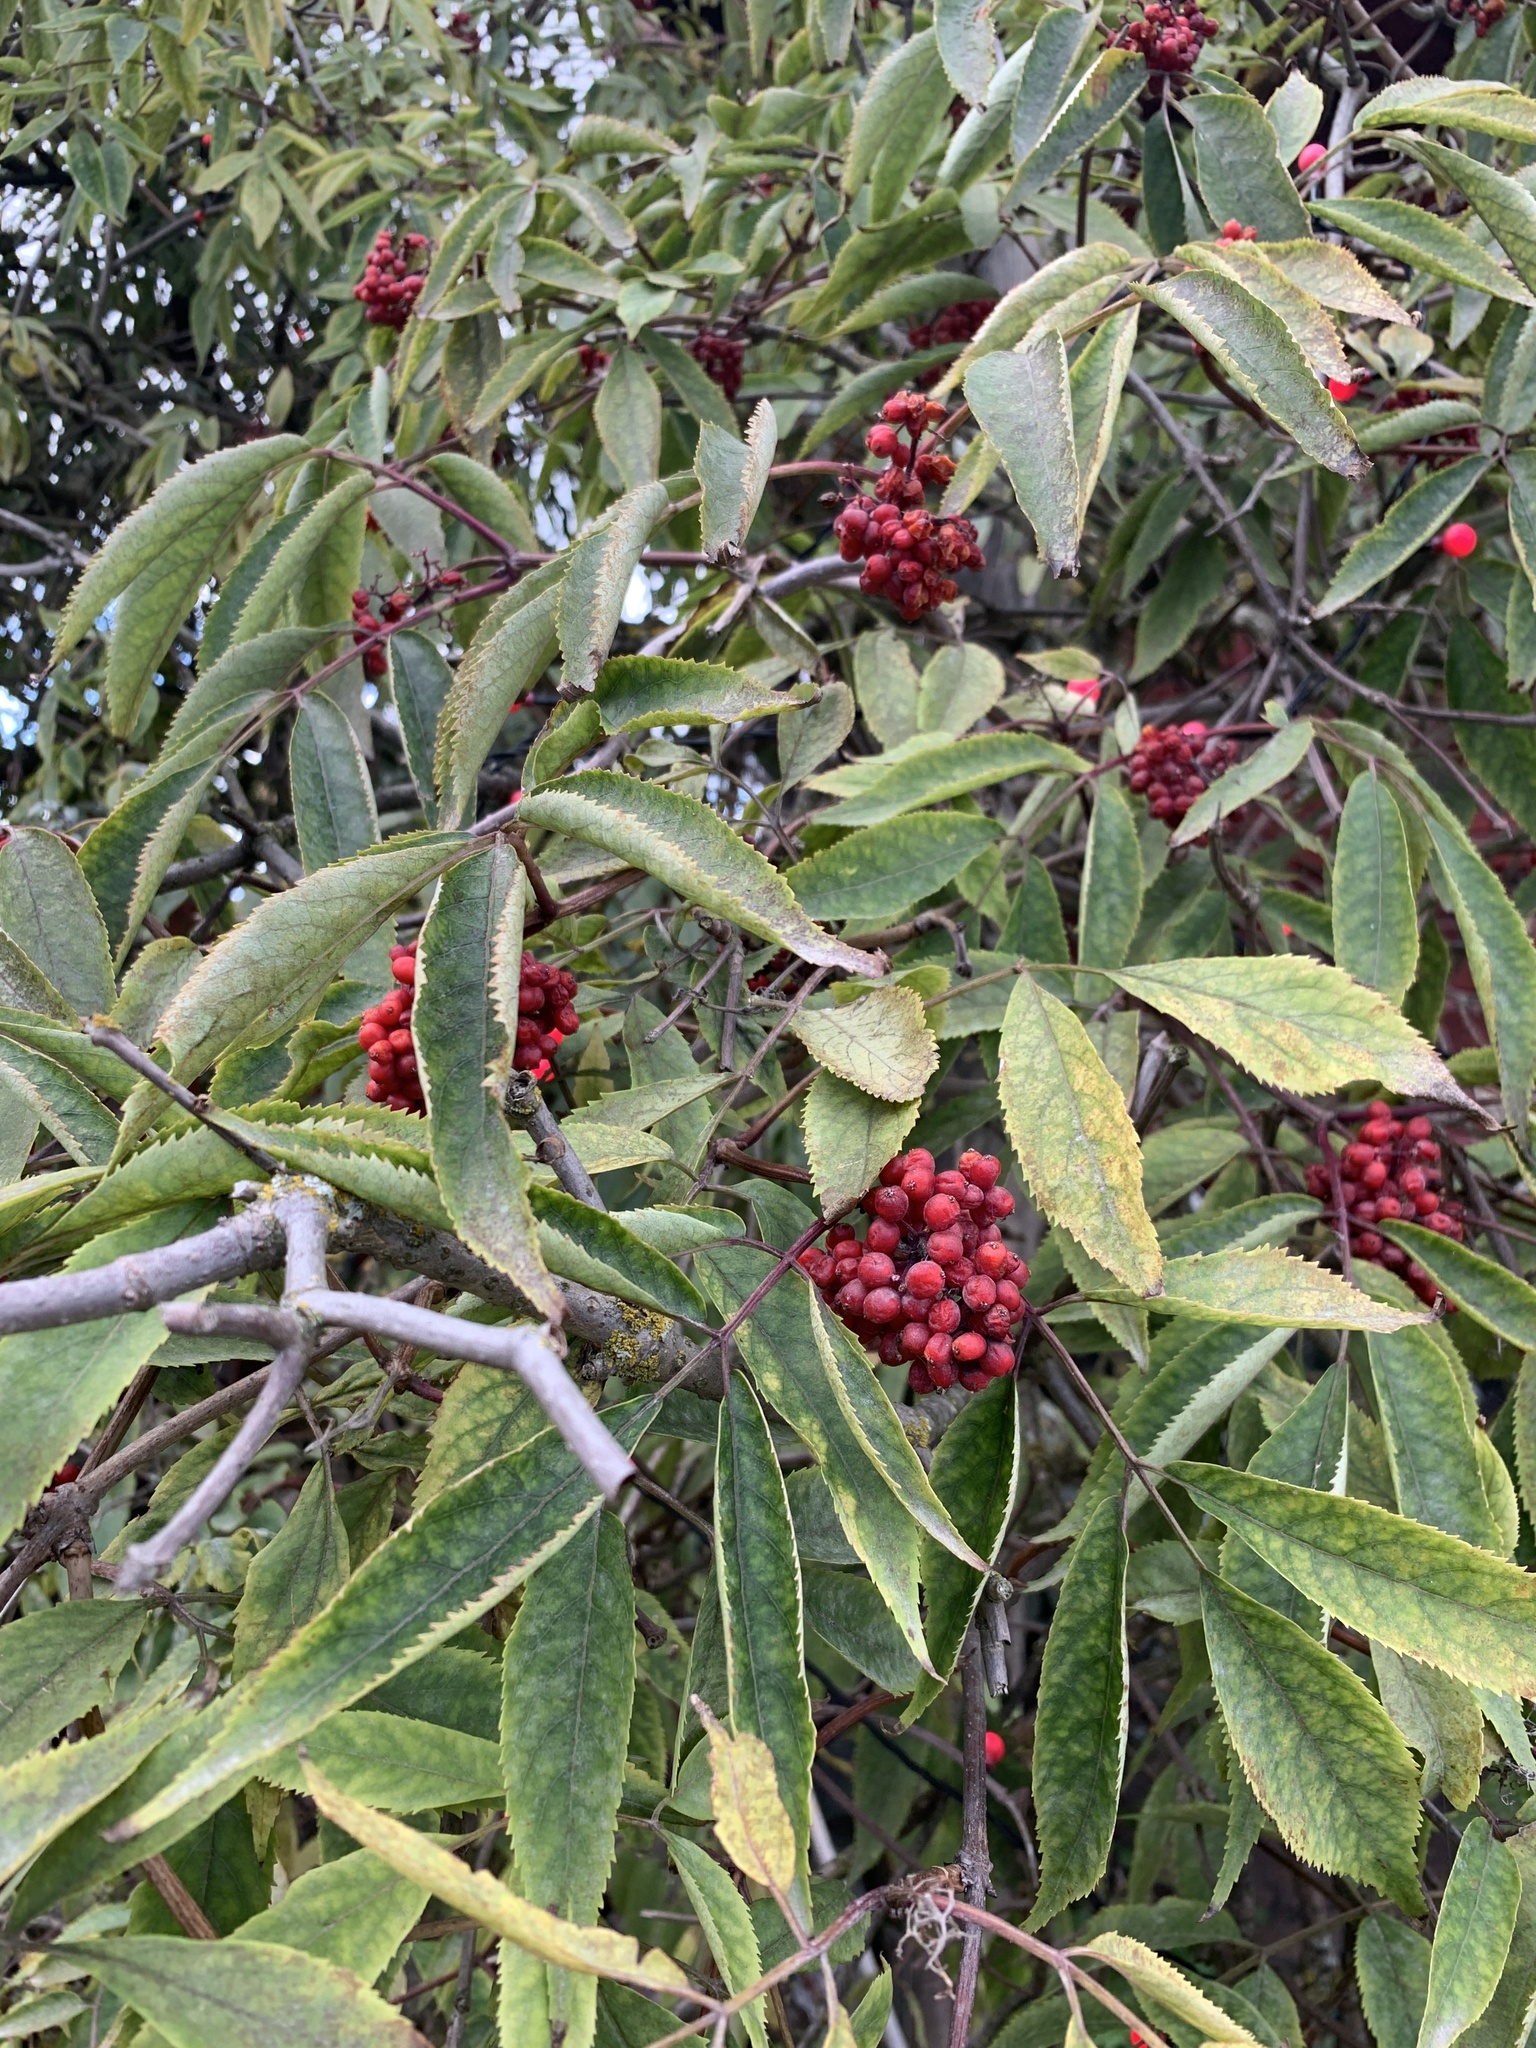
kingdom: Plantae
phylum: Tracheophyta
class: Magnoliopsida
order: Dipsacales
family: Viburnaceae
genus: Sambucus
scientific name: Sambucus racemosa
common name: Red-berried elder
